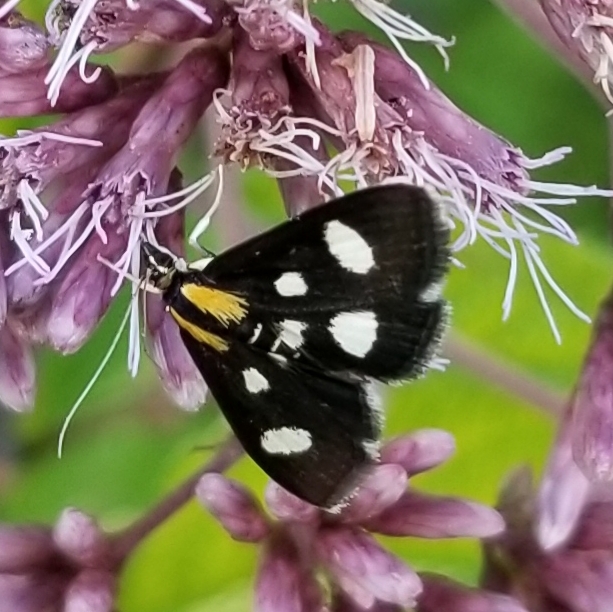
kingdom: Animalia
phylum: Arthropoda
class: Insecta
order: Lepidoptera
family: Crambidae
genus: Anania
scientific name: Anania funebris
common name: White-spotted sable moth
